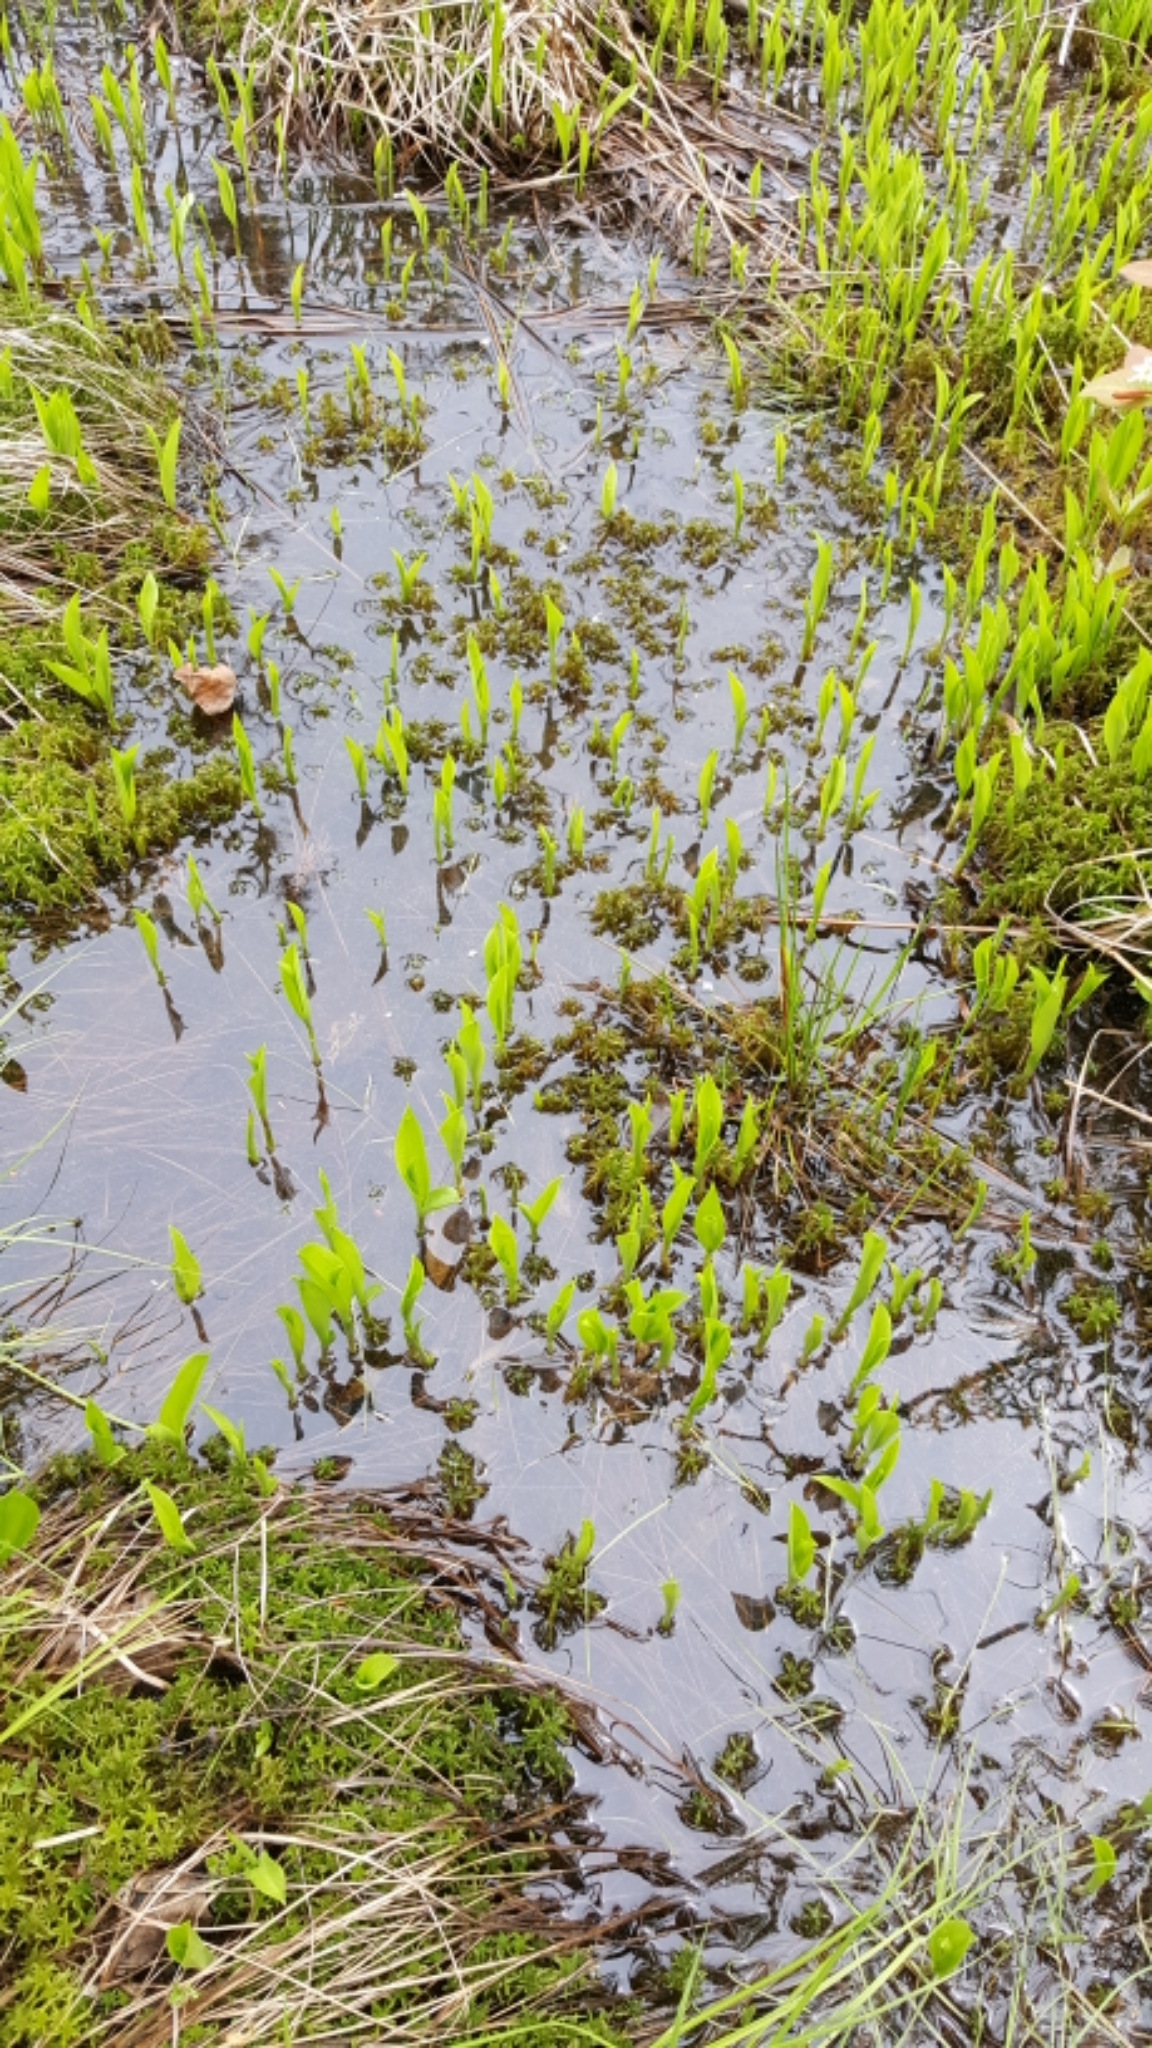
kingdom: Plantae
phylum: Tracheophyta
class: Liliopsida
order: Asparagales
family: Asparagaceae
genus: Maianthemum
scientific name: Maianthemum trifolium
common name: Swamp false solomon's seal
